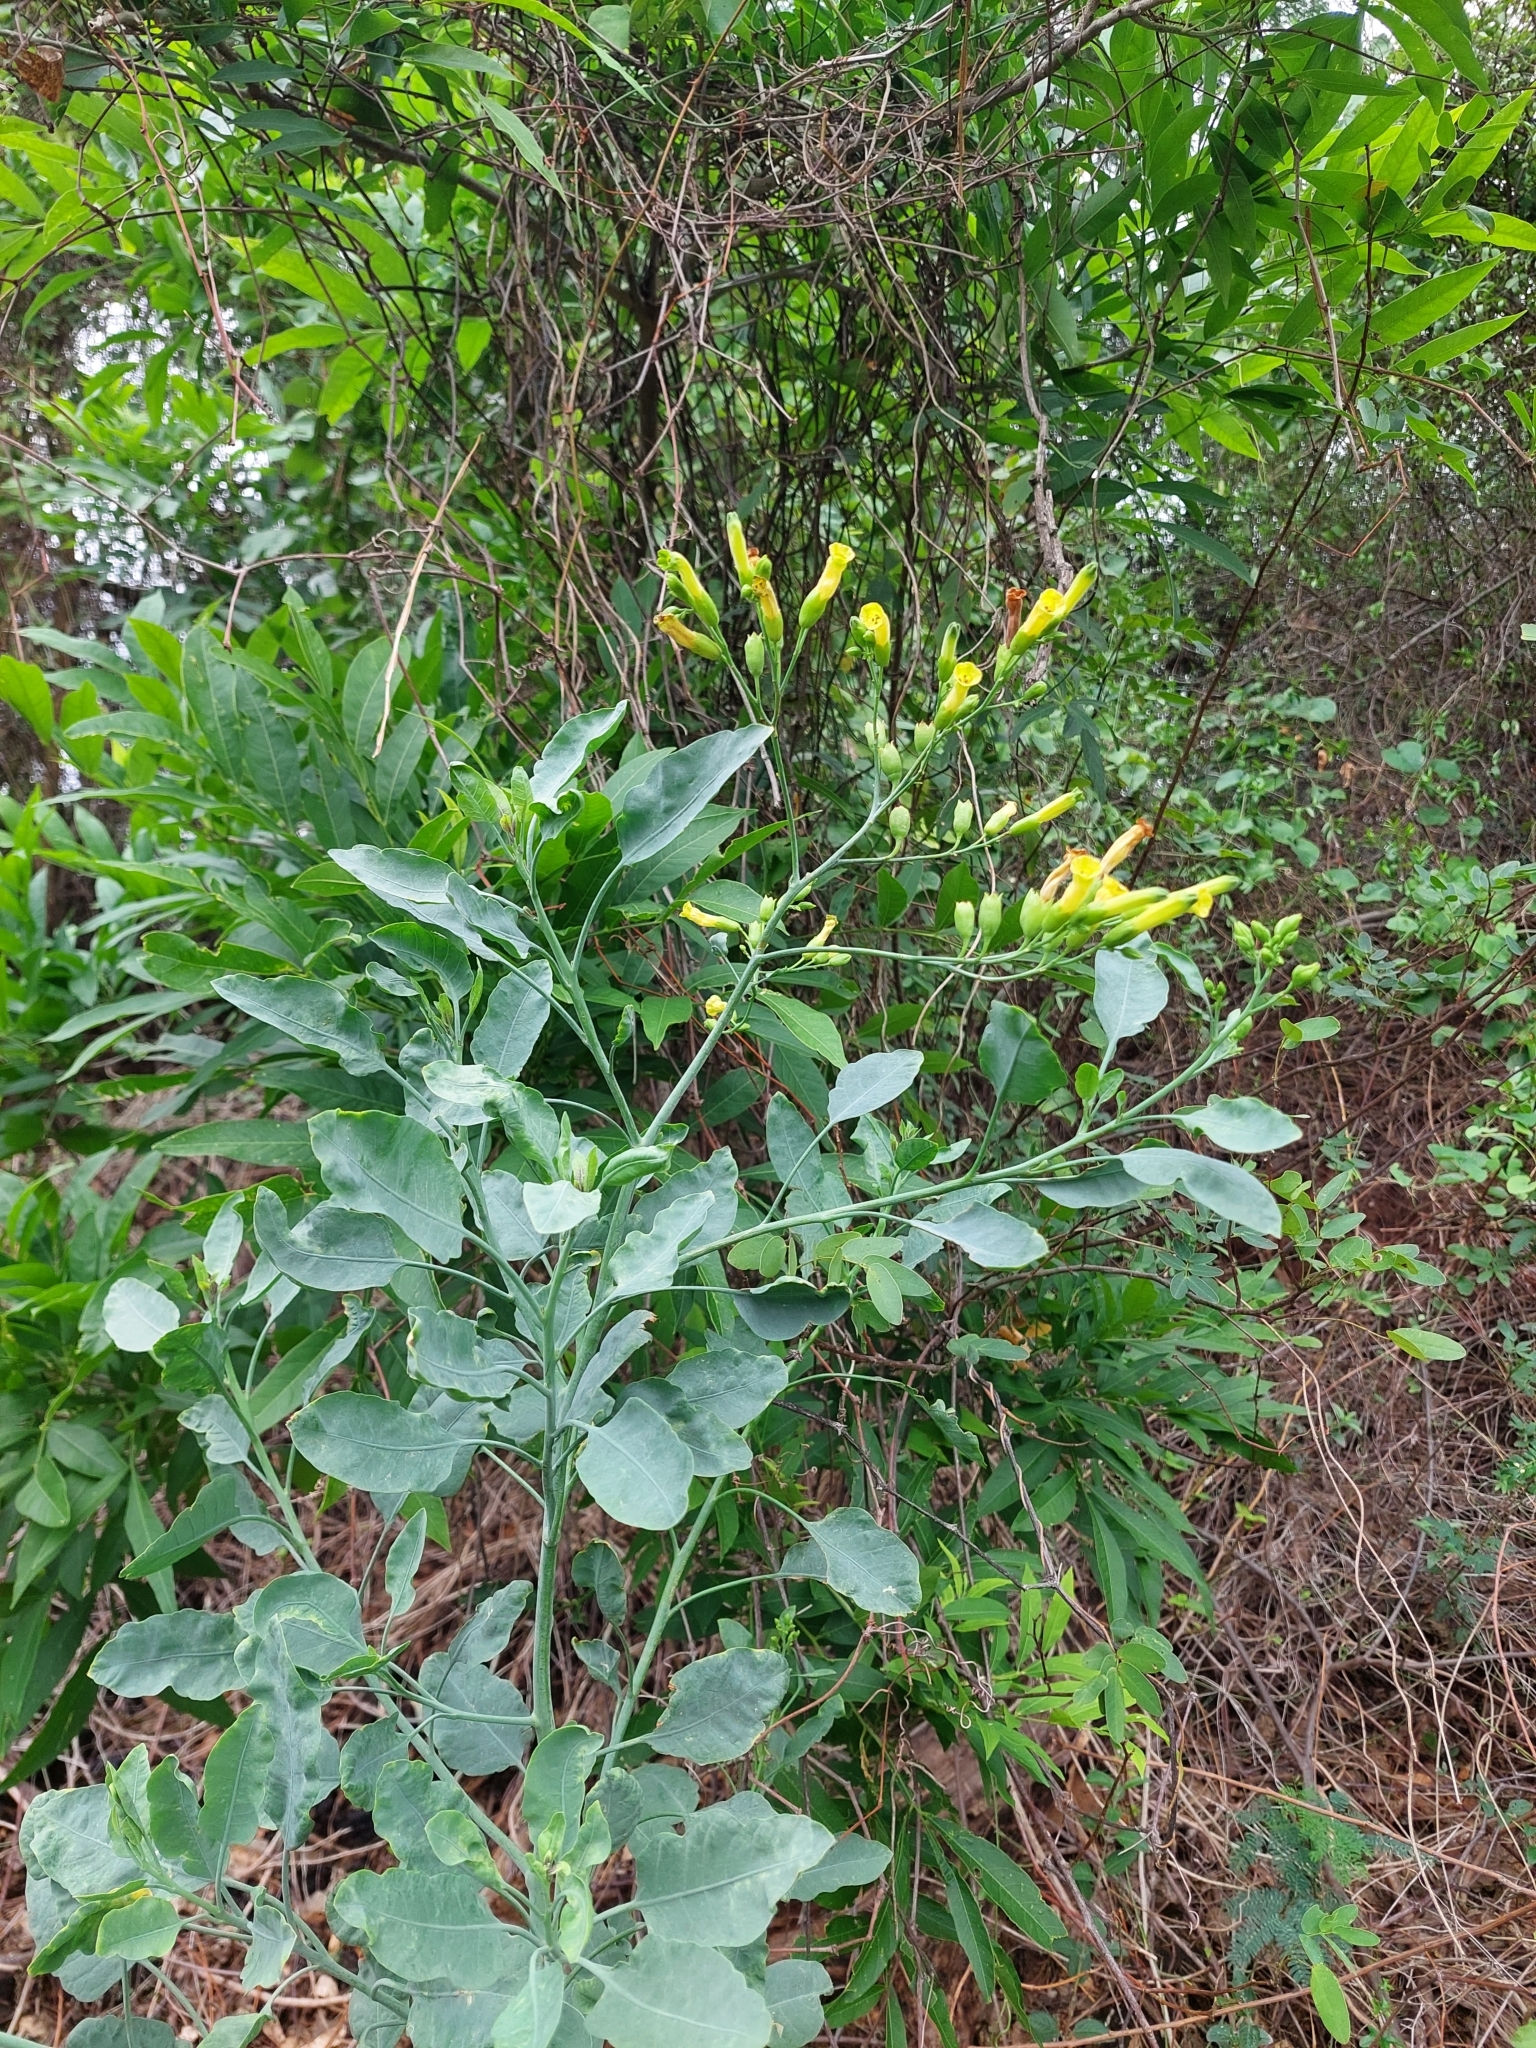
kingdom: Plantae
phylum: Tracheophyta
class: Magnoliopsida
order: Solanales
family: Solanaceae
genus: Nicotiana
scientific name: Nicotiana glauca
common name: Tree tobacco
